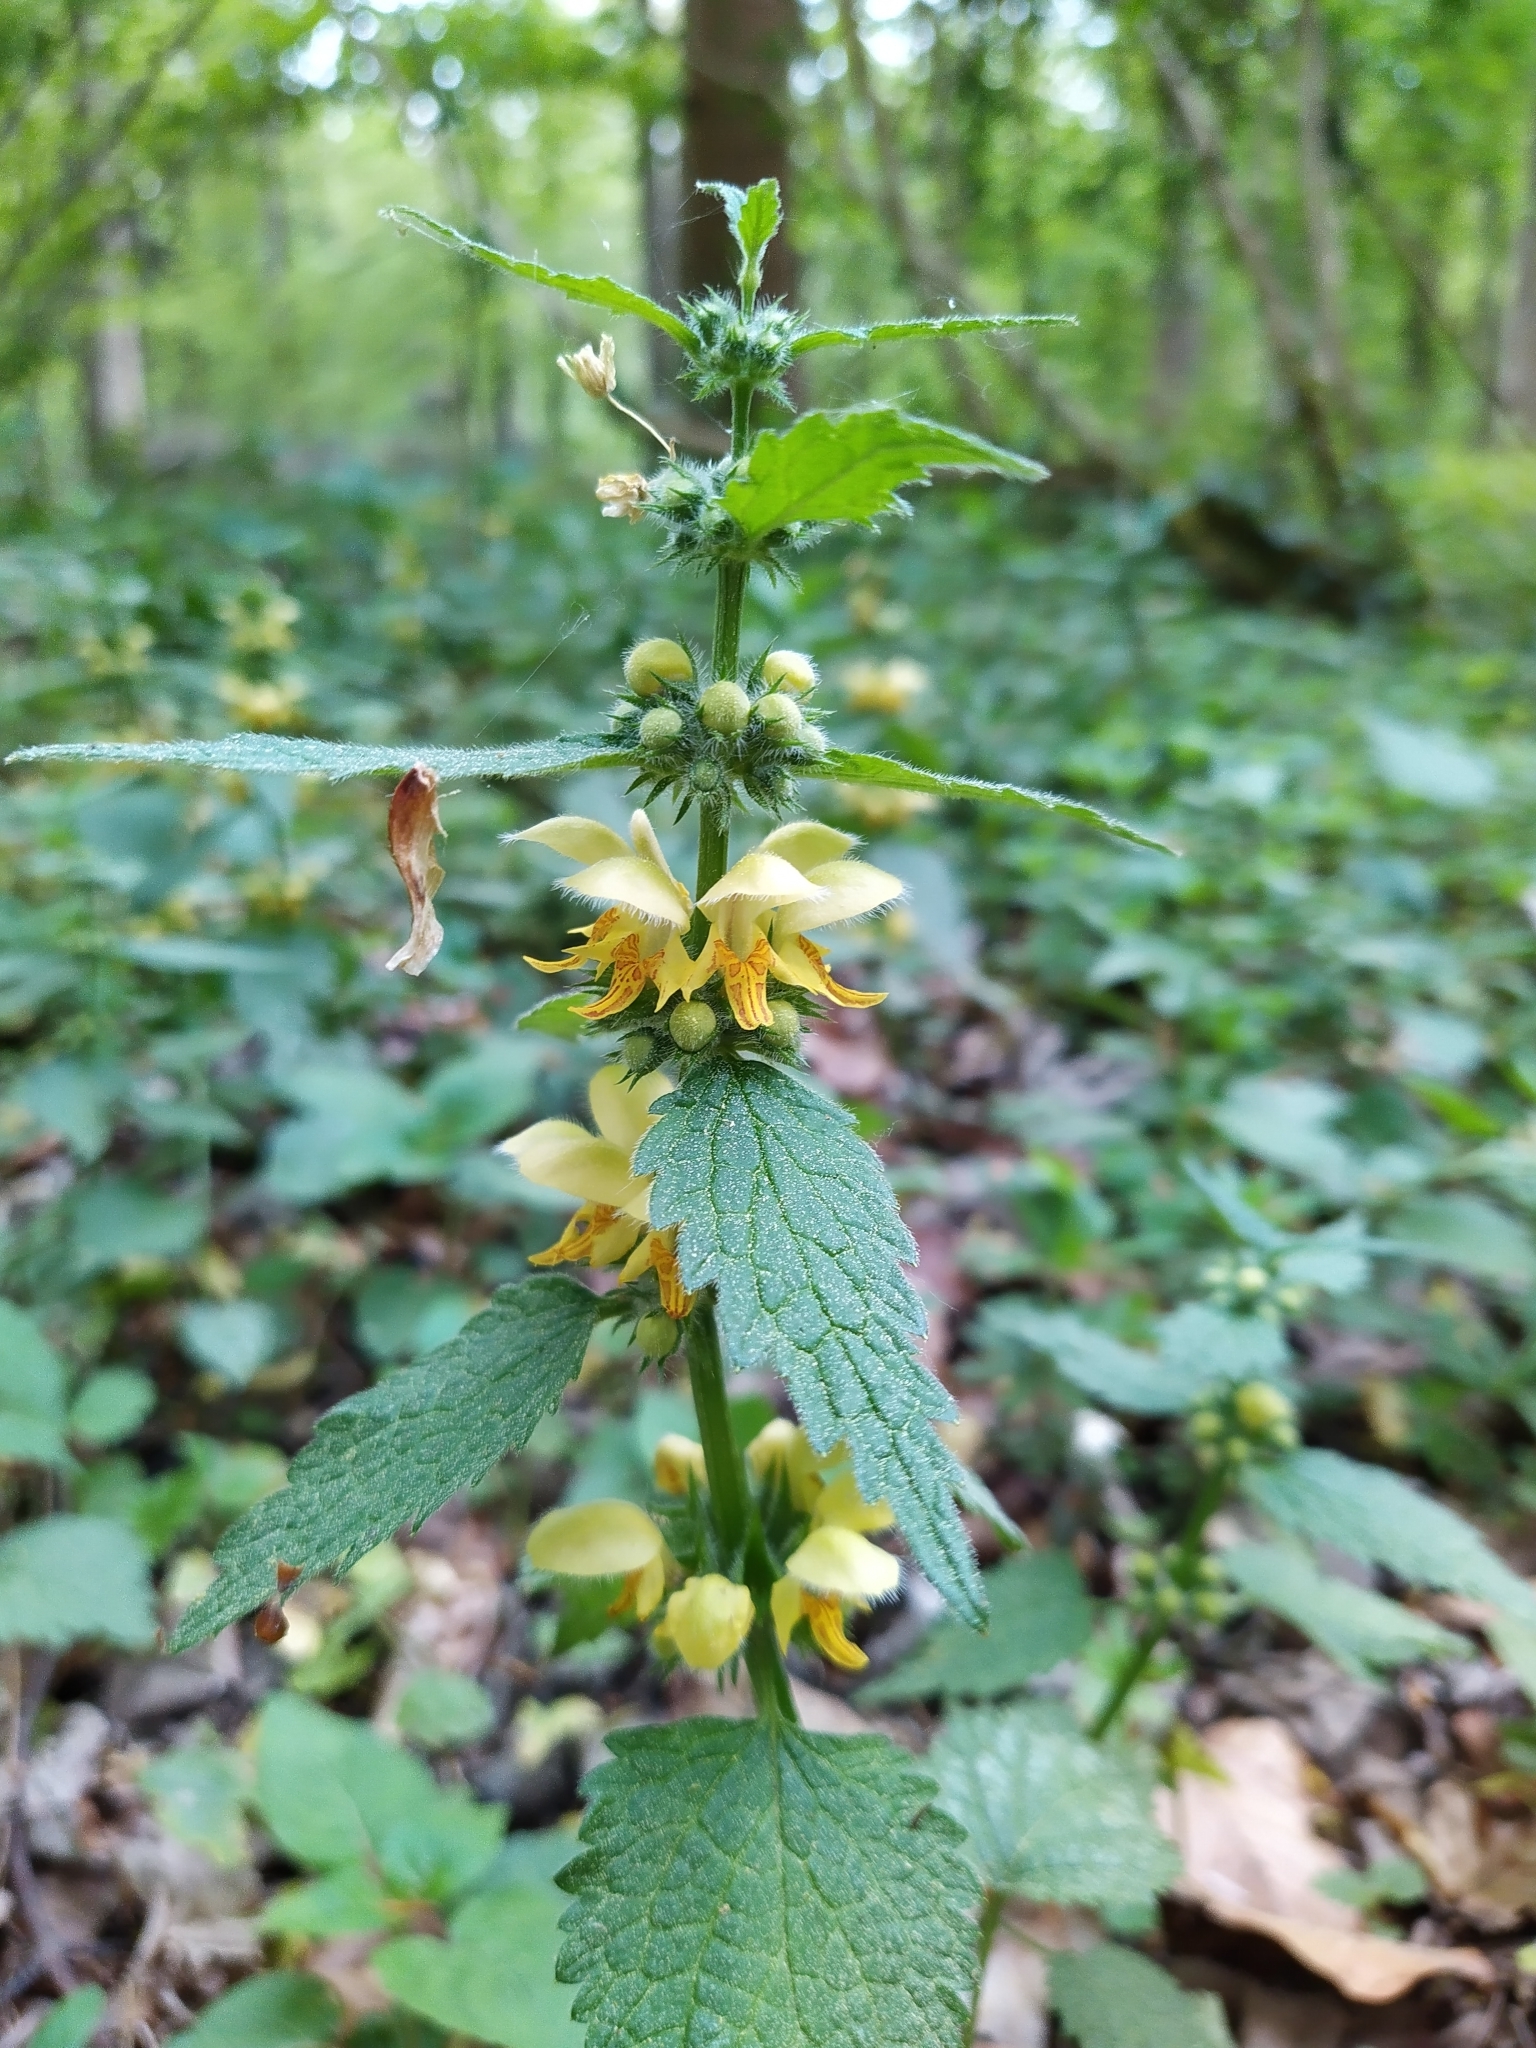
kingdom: Plantae
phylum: Tracheophyta
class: Magnoliopsida
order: Lamiales
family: Lamiaceae
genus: Lamium
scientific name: Lamium galeobdolon
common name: Yellow archangel
